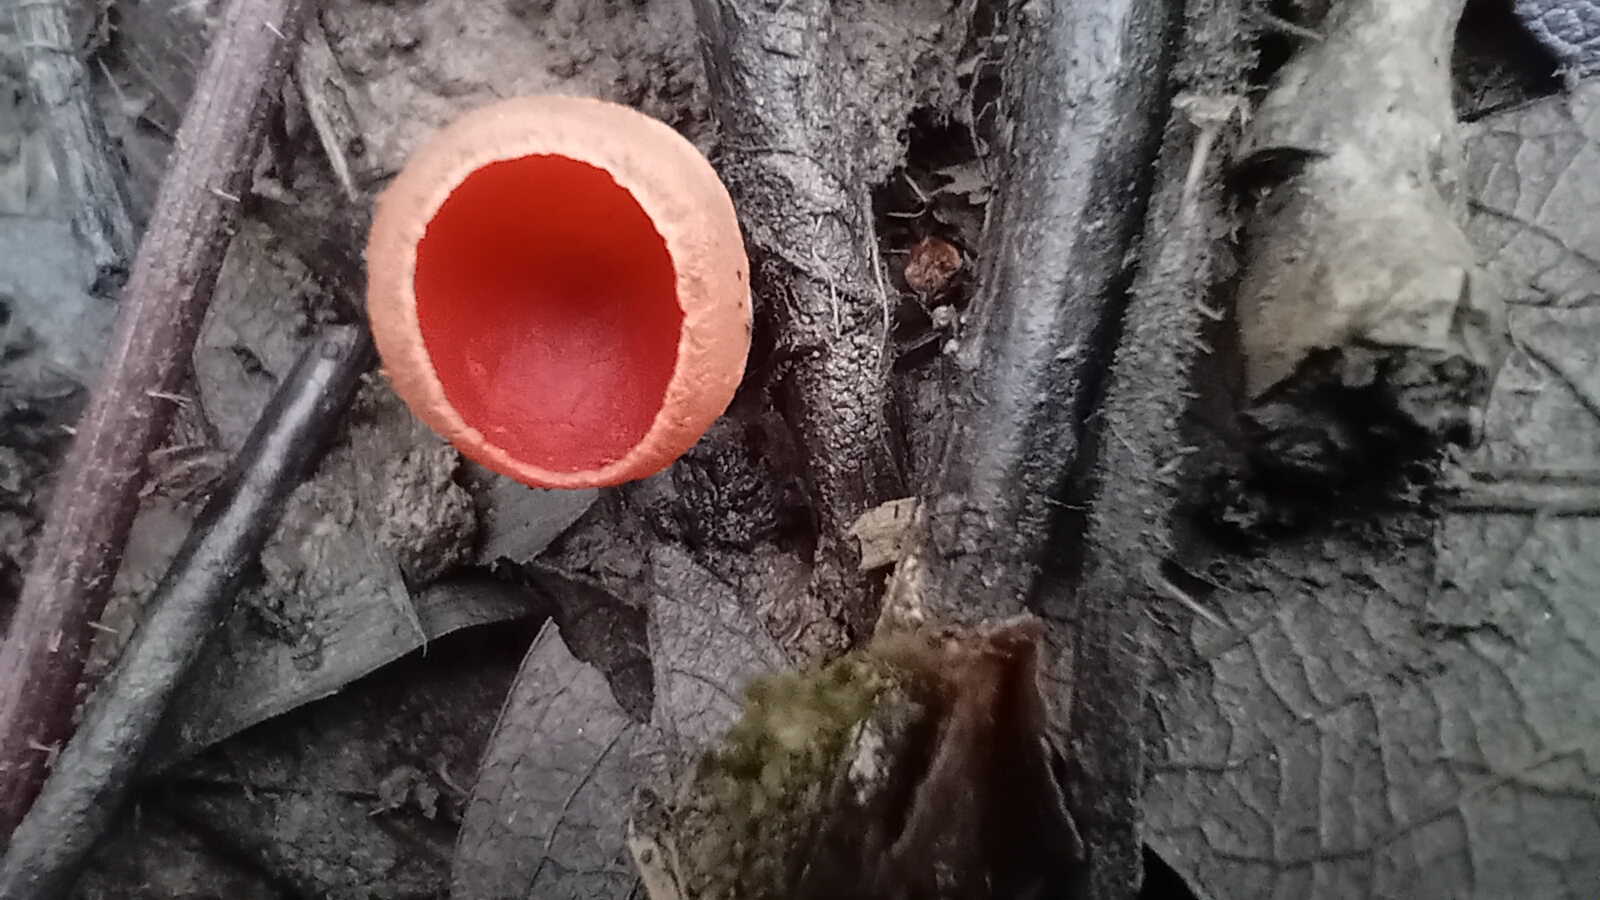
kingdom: Fungi
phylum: Ascomycota
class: Pezizomycetes
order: Pezizales
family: Sarcoscyphaceae
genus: Sarcoscypha
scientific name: Sarcoscypha
